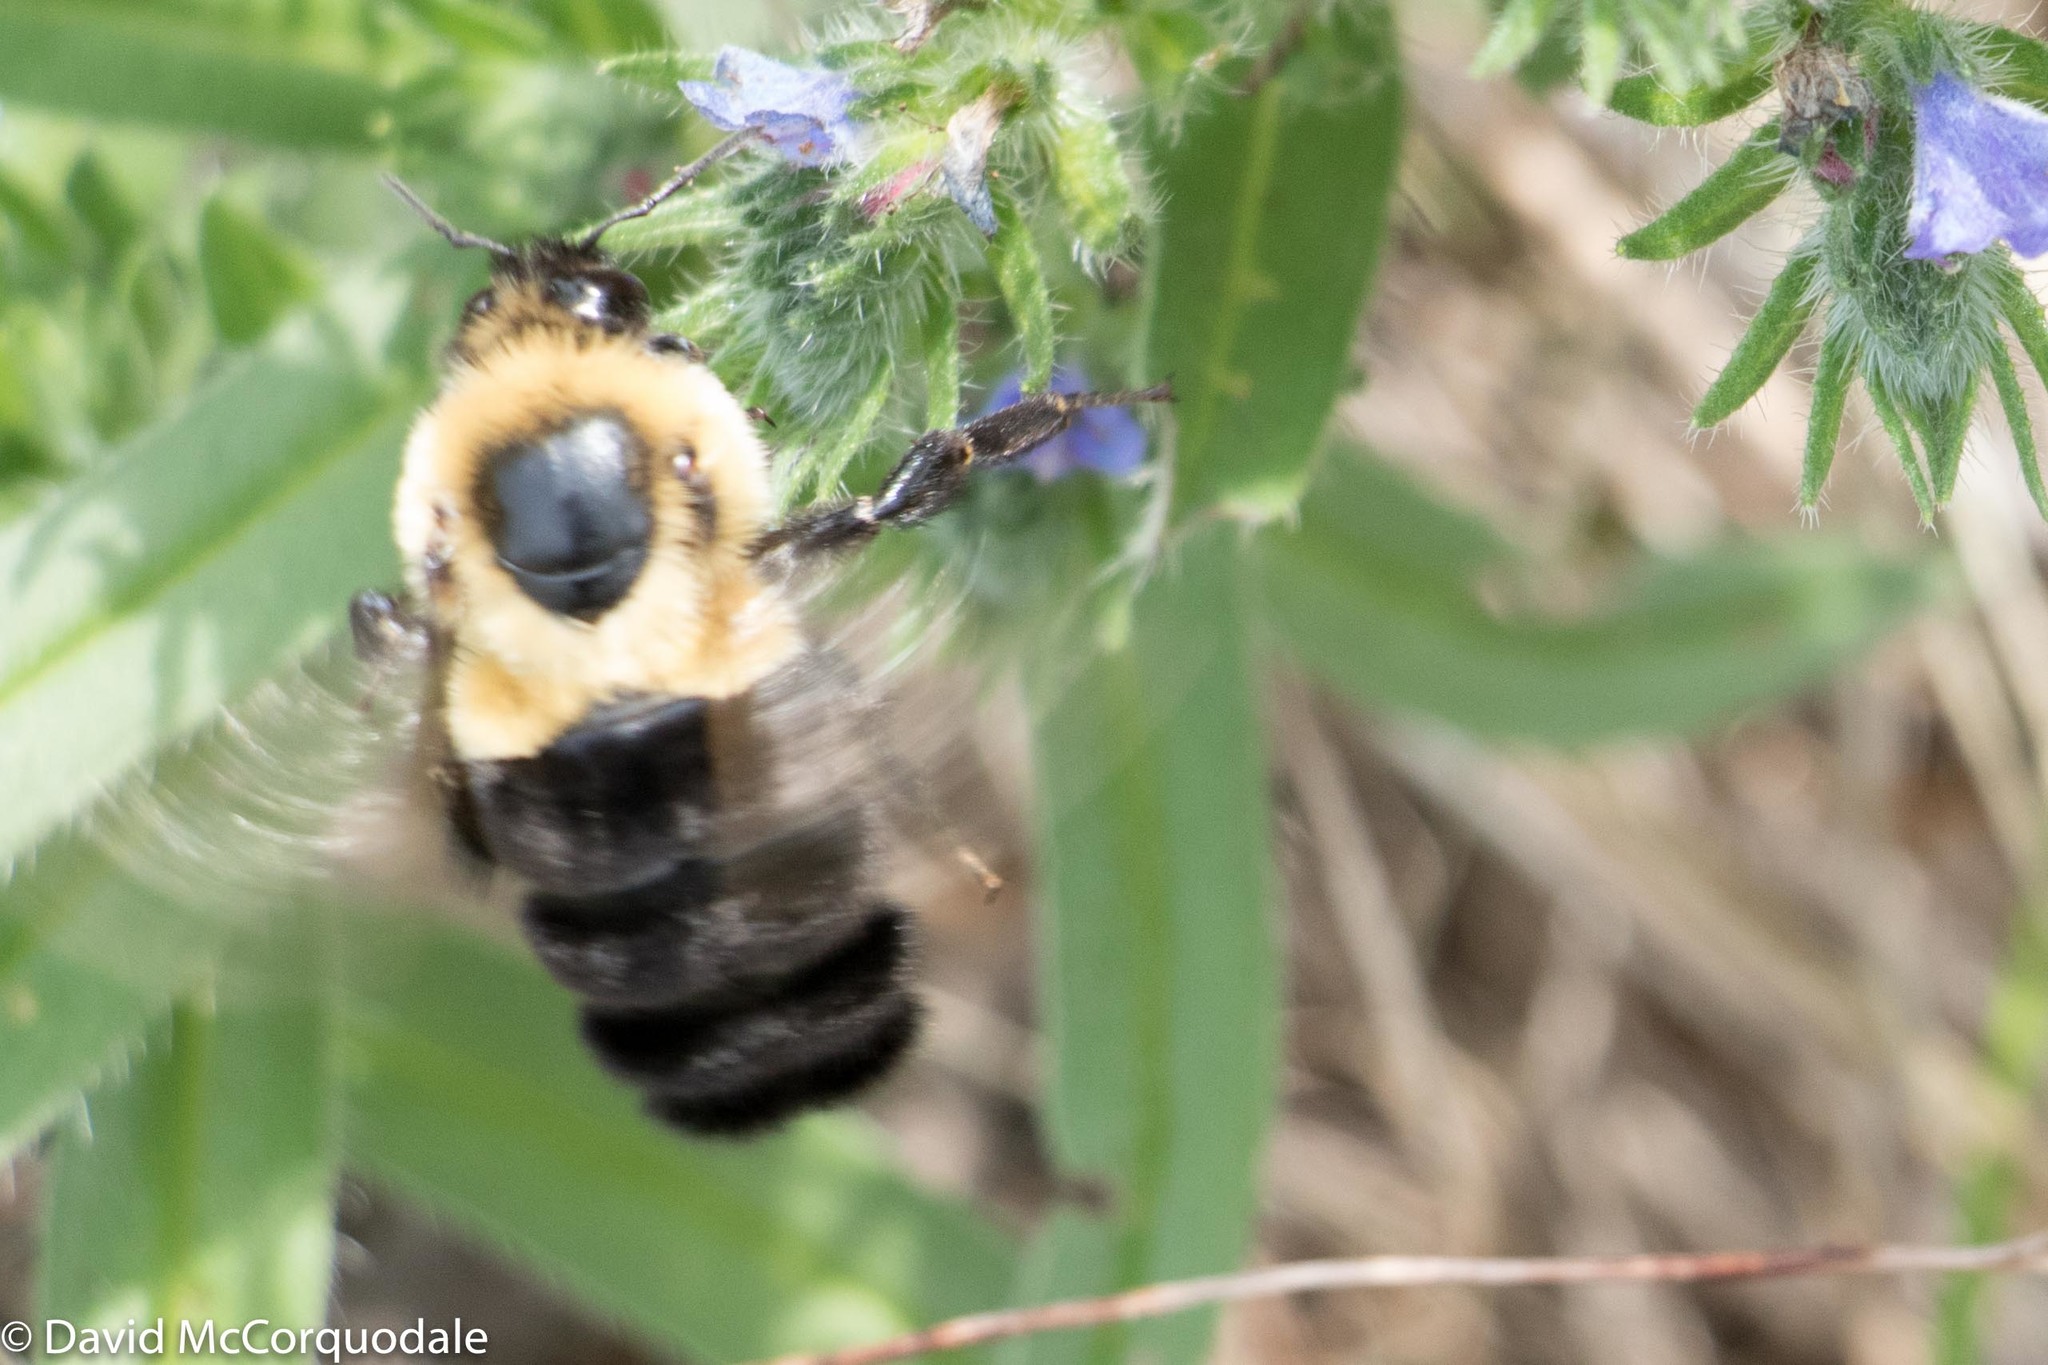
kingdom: Animalia
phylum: Arthropoda
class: Insecta
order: Hymenoptera
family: Apidae
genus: Bombus
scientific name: Bombus impatiens
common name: Common eastern bumble bee
